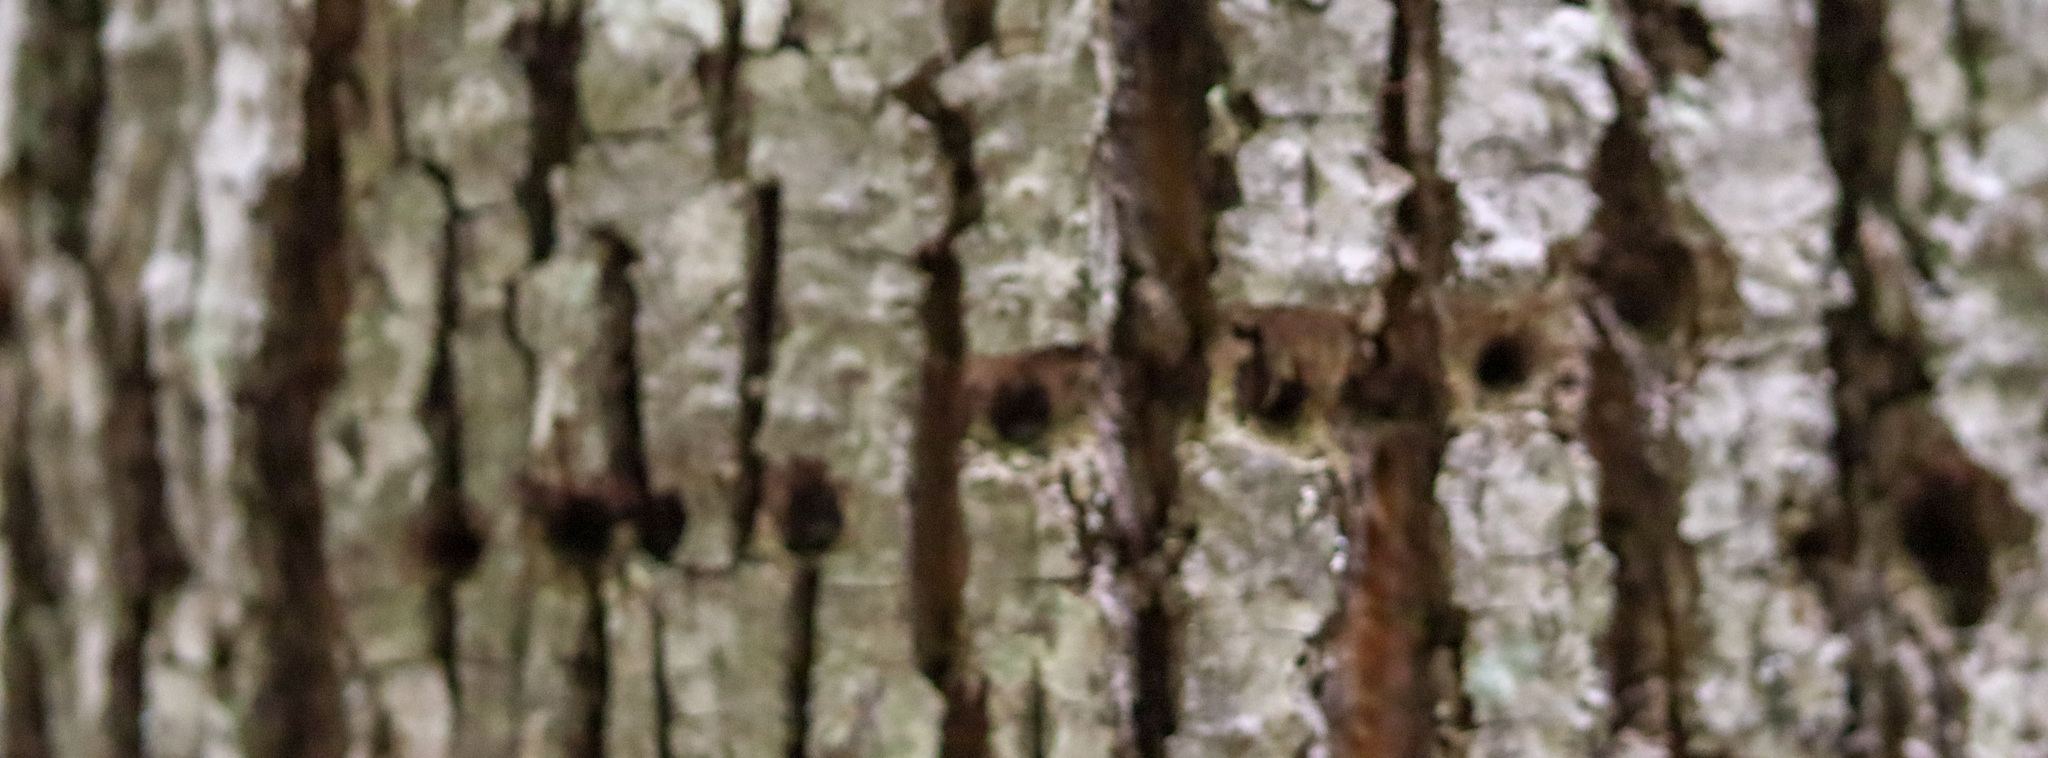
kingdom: Animalia
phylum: Chordata
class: Aves
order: Piciformes
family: Picidae
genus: Sphyrapicus
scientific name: Sphyrapicus varius
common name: Yellow-bellied sapsucker
